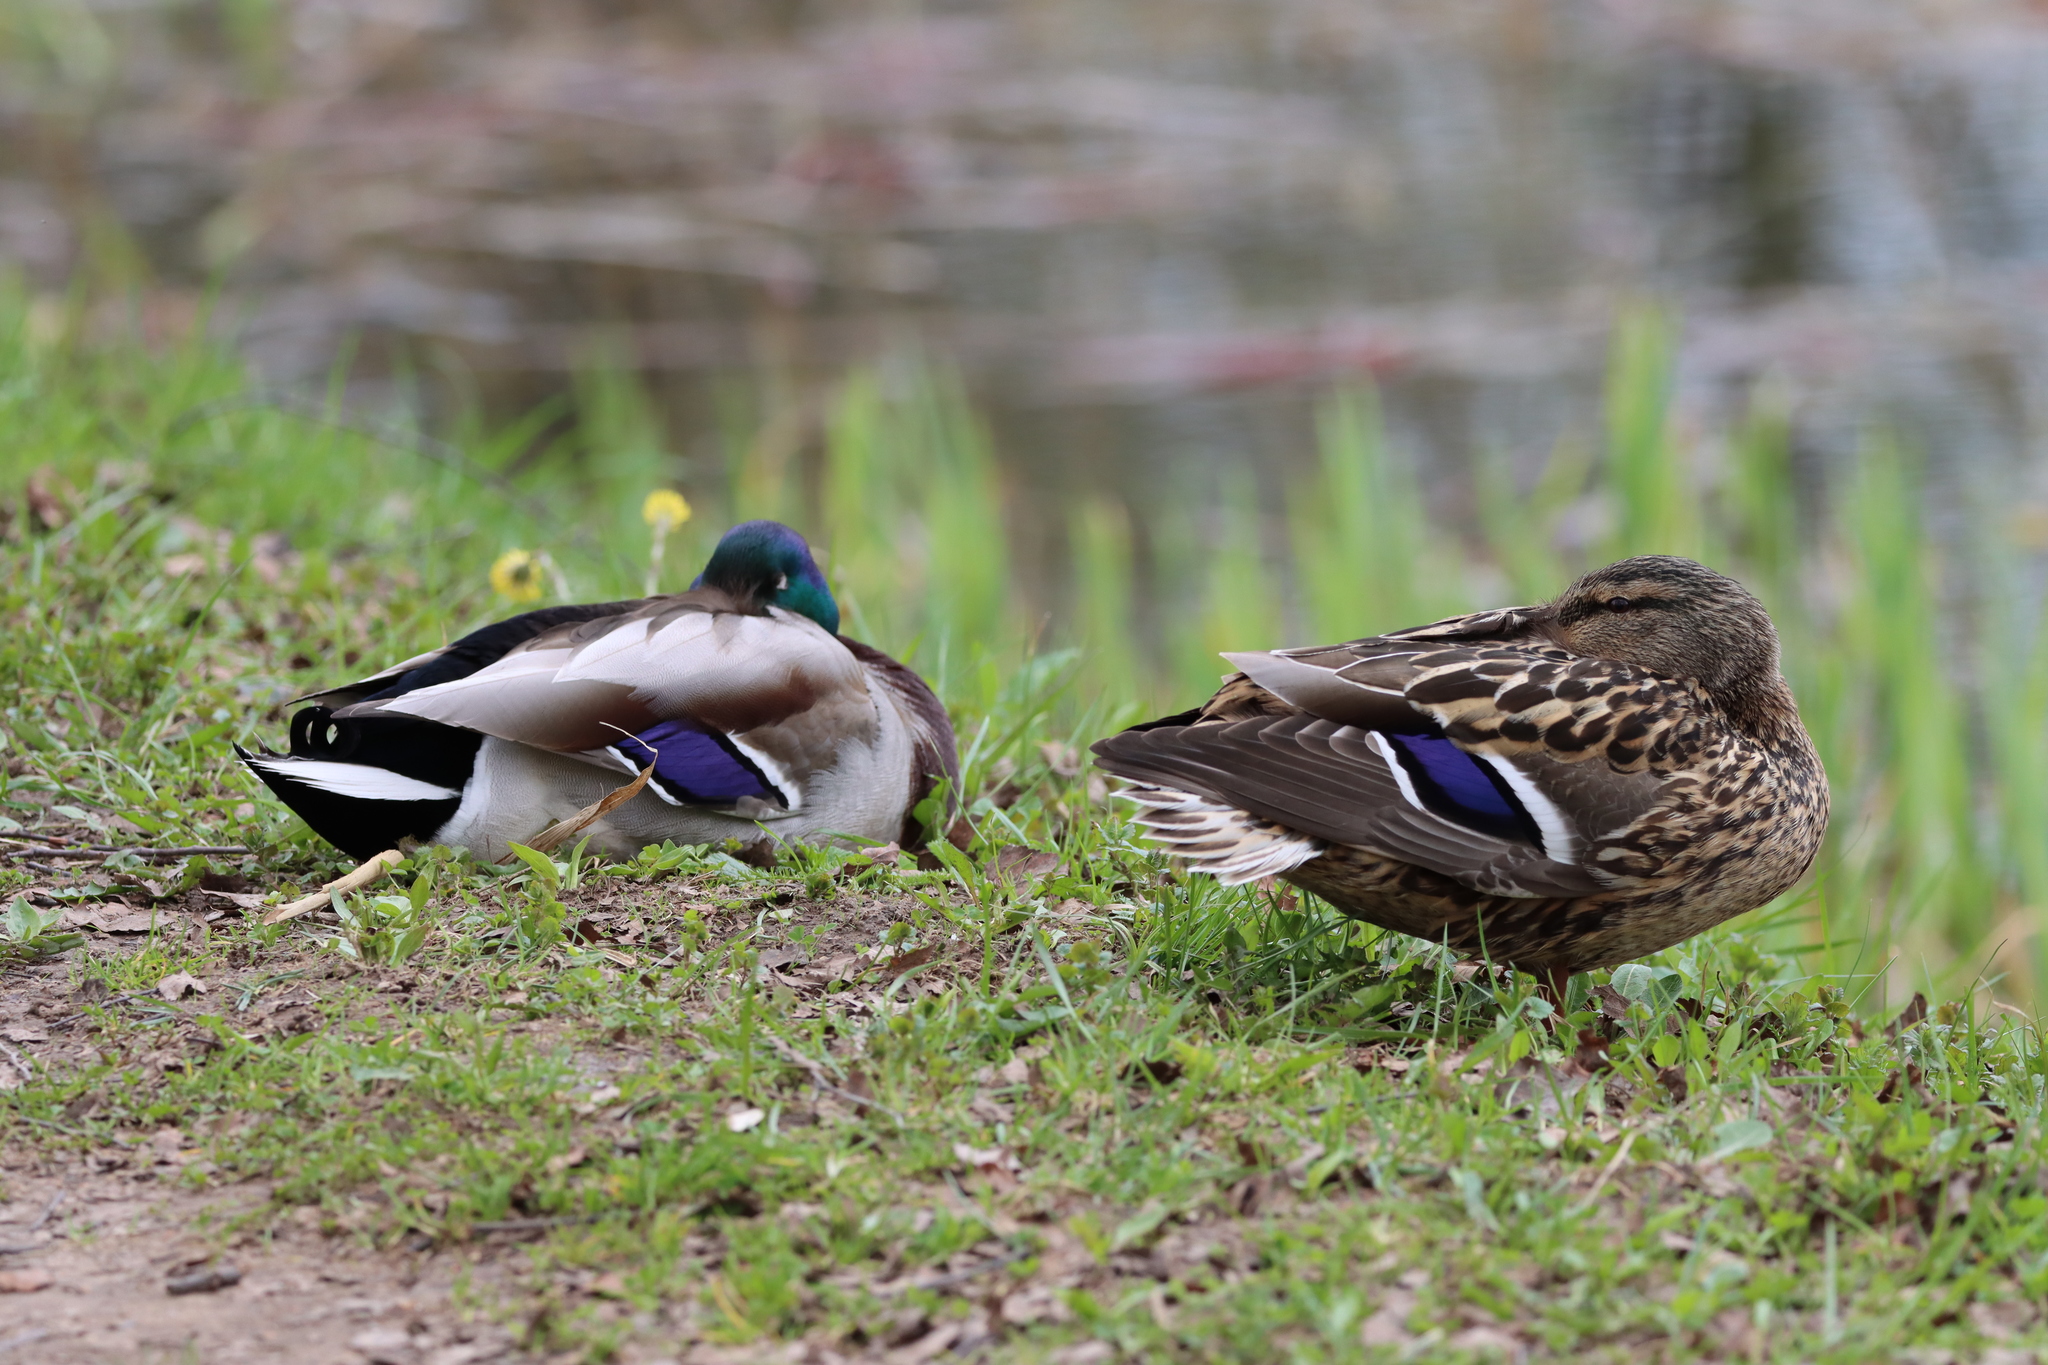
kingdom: Animalia
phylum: Chordata
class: Aves
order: Anseriformes
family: Anatidae
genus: Anas
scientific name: Anas platyrhynchos
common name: Mallard
